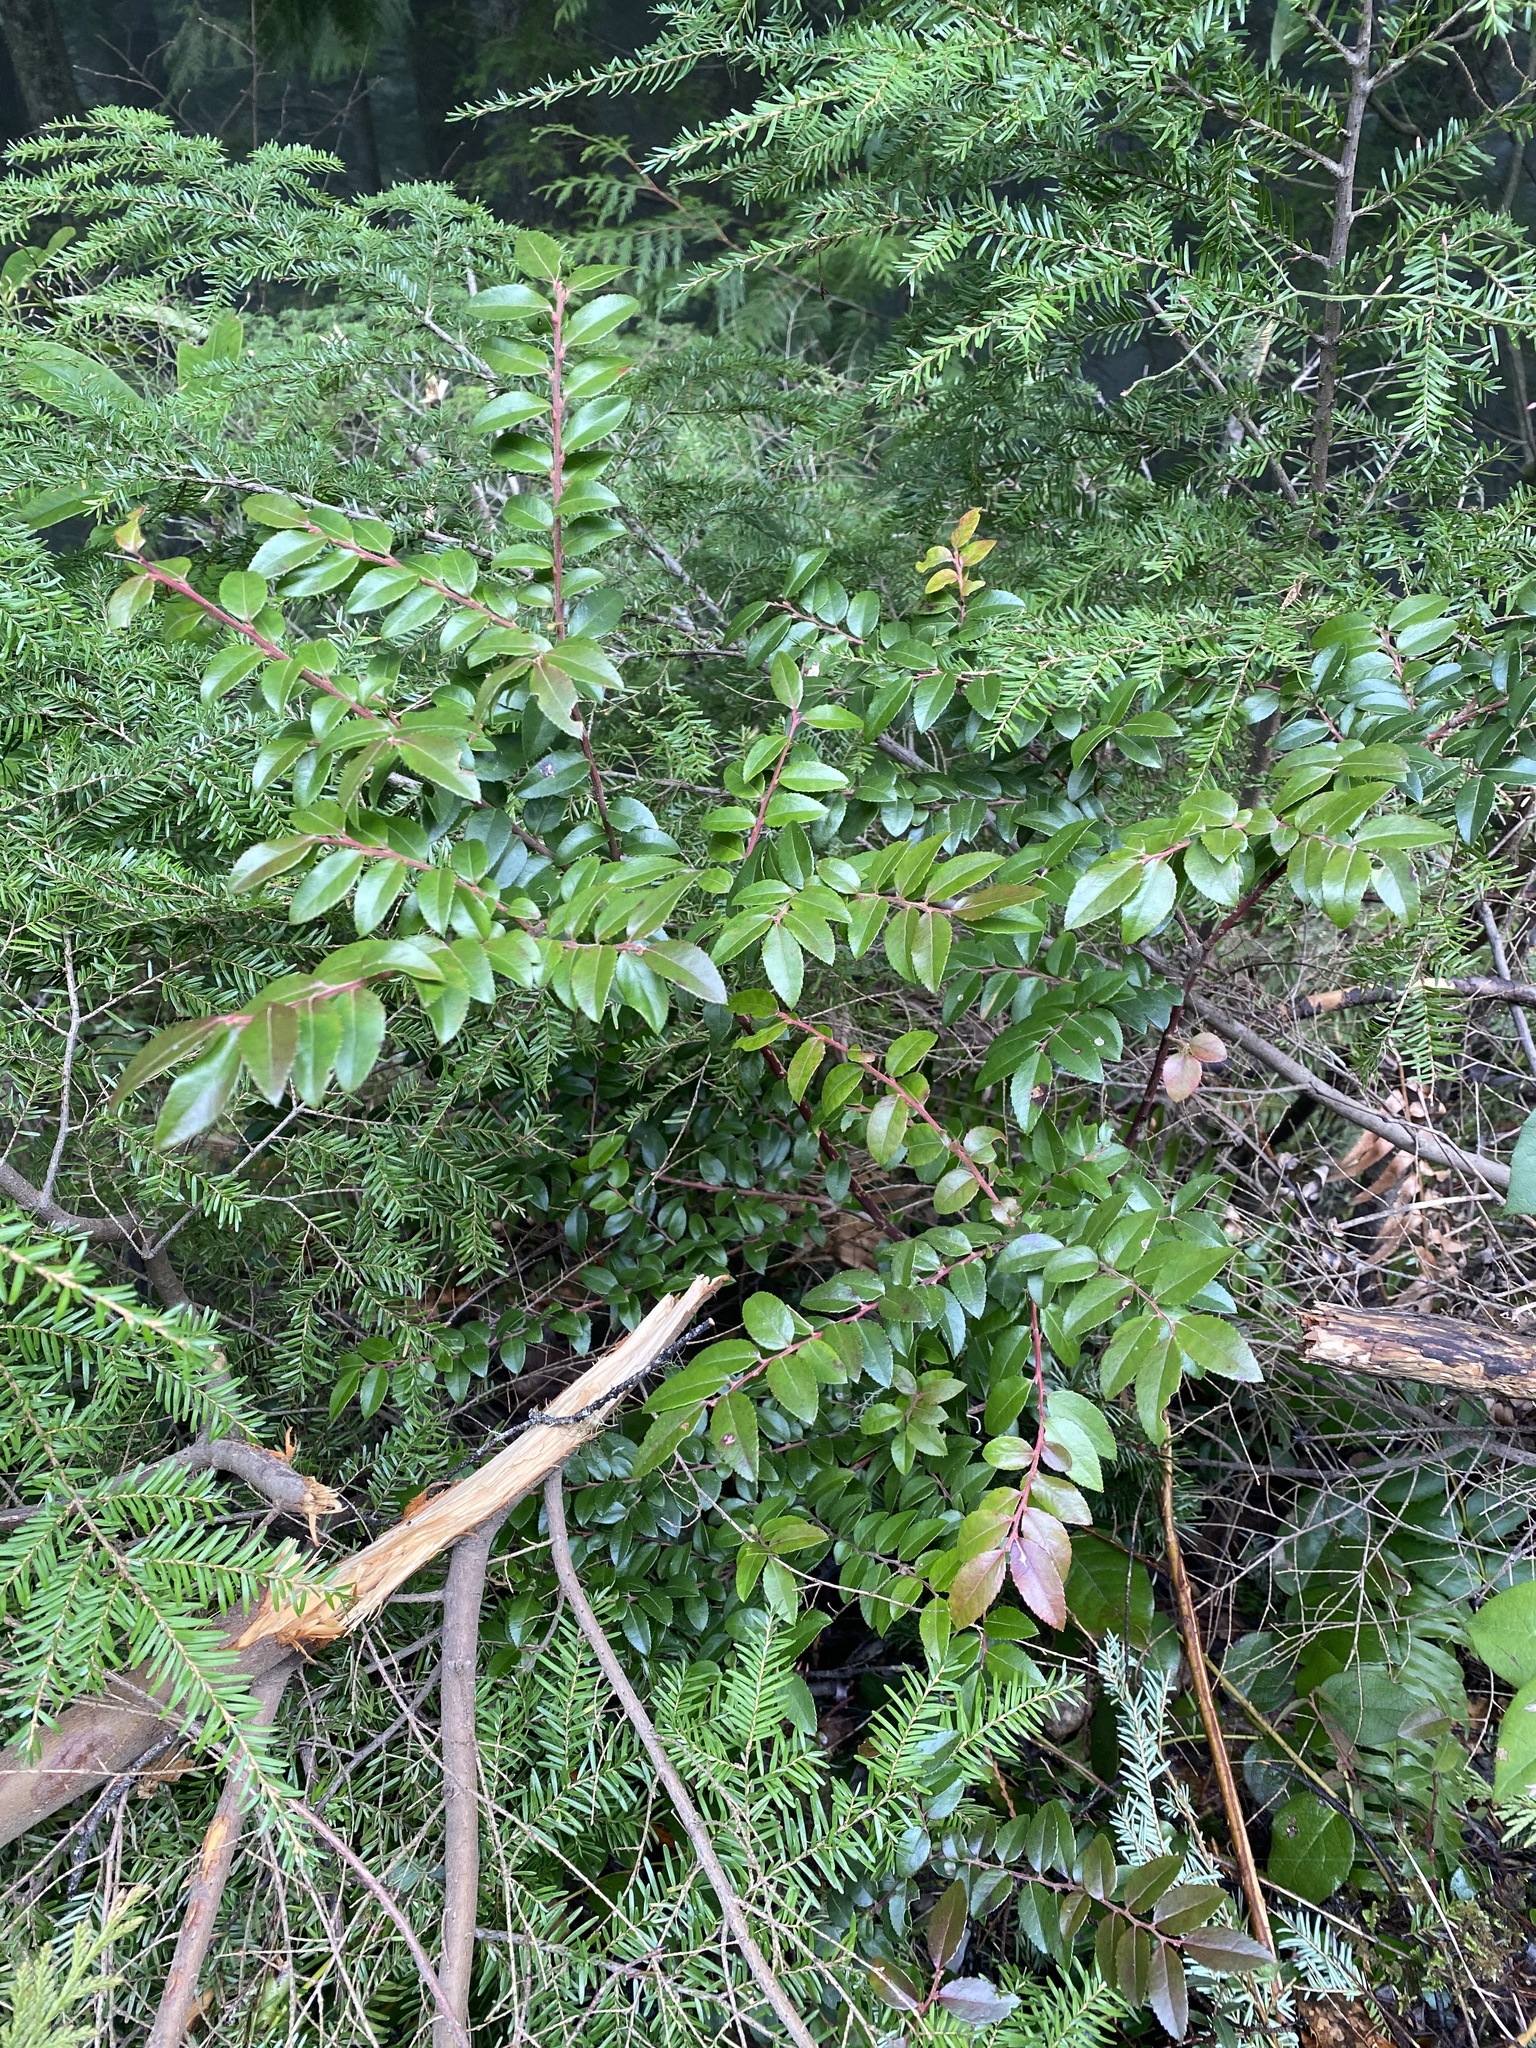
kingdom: Plantae
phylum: Tracheophyta
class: Magnoliopsida
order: Ericales
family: Ericaceae
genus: Vaccinium
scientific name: Vaccinium ovatum
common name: California-huckleberry
